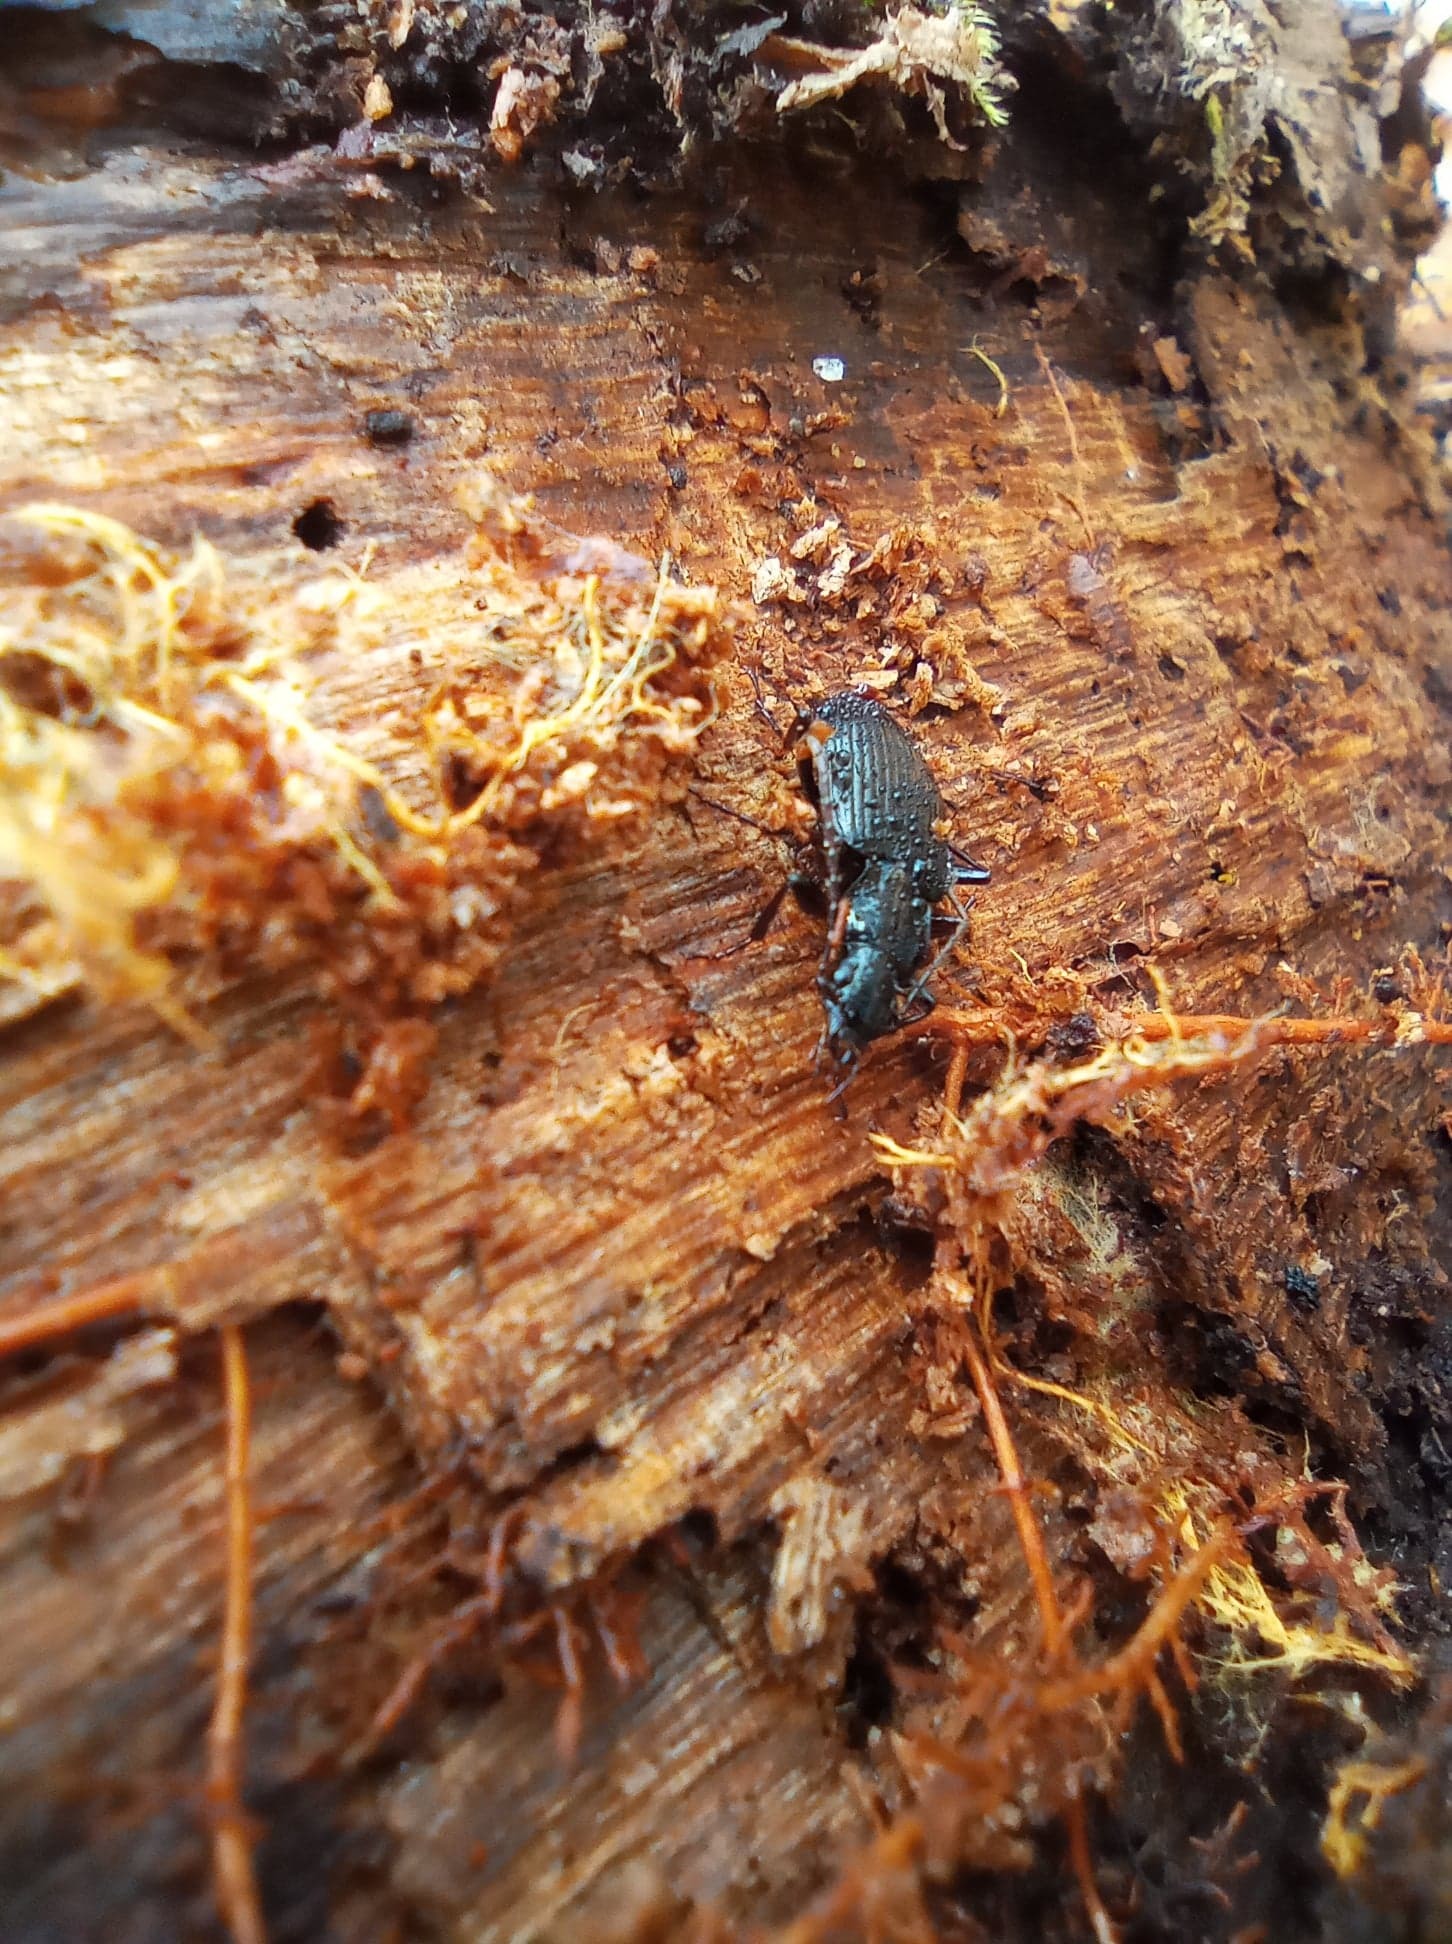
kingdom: Animalia
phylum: Arthropoda
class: Insecta
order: Coleoptera
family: Carabidae
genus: Platynus
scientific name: Platynus assimilis
